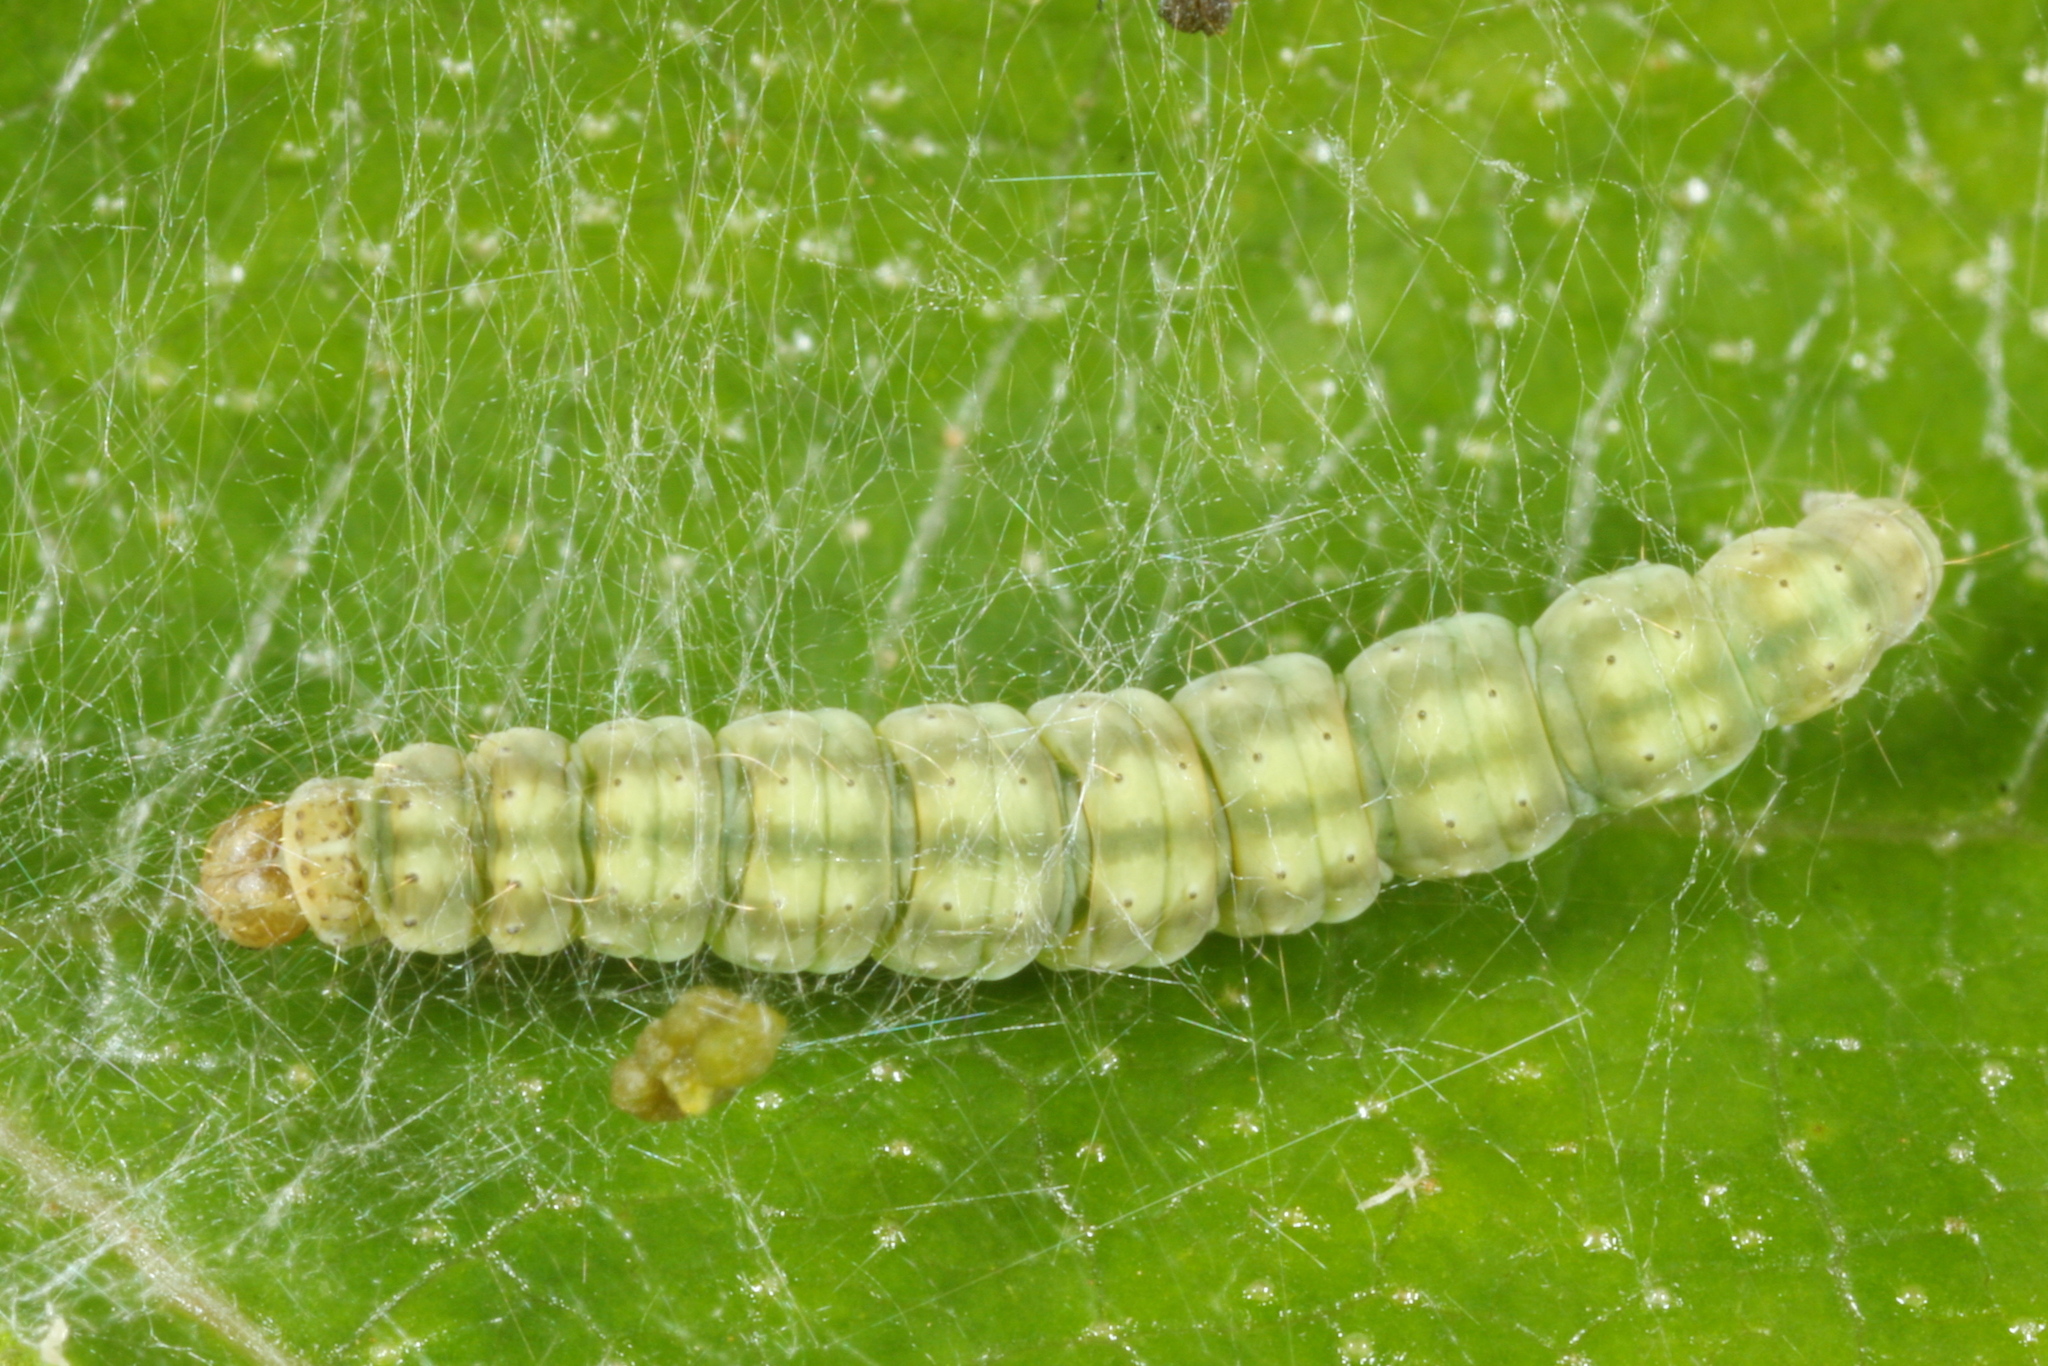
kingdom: Animalia
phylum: Arthropoda
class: Insecta
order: Lepidoptera
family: Yponomeutidae
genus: Swammerdamia
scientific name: Swammerdamia
